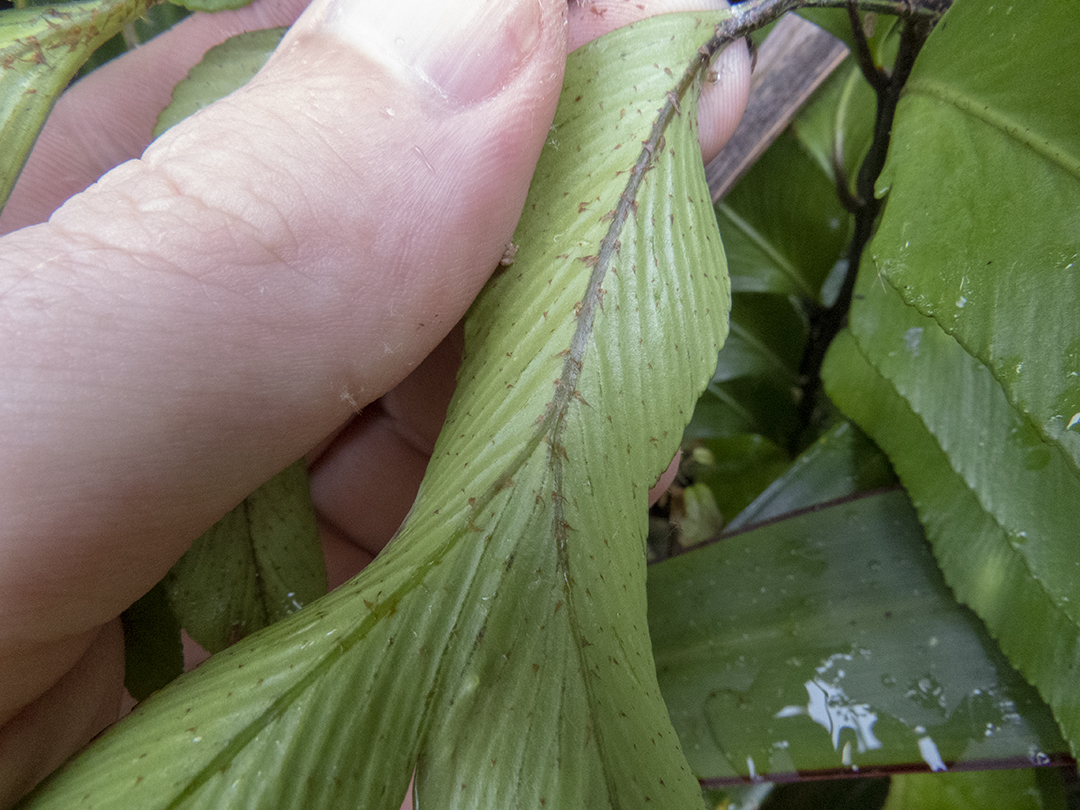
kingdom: Plantae
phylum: Tracheophyta
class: Polypodiopsida
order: Polypodiales
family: Aspleniaceae
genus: Asplenium
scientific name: Asplenium obtusatum
